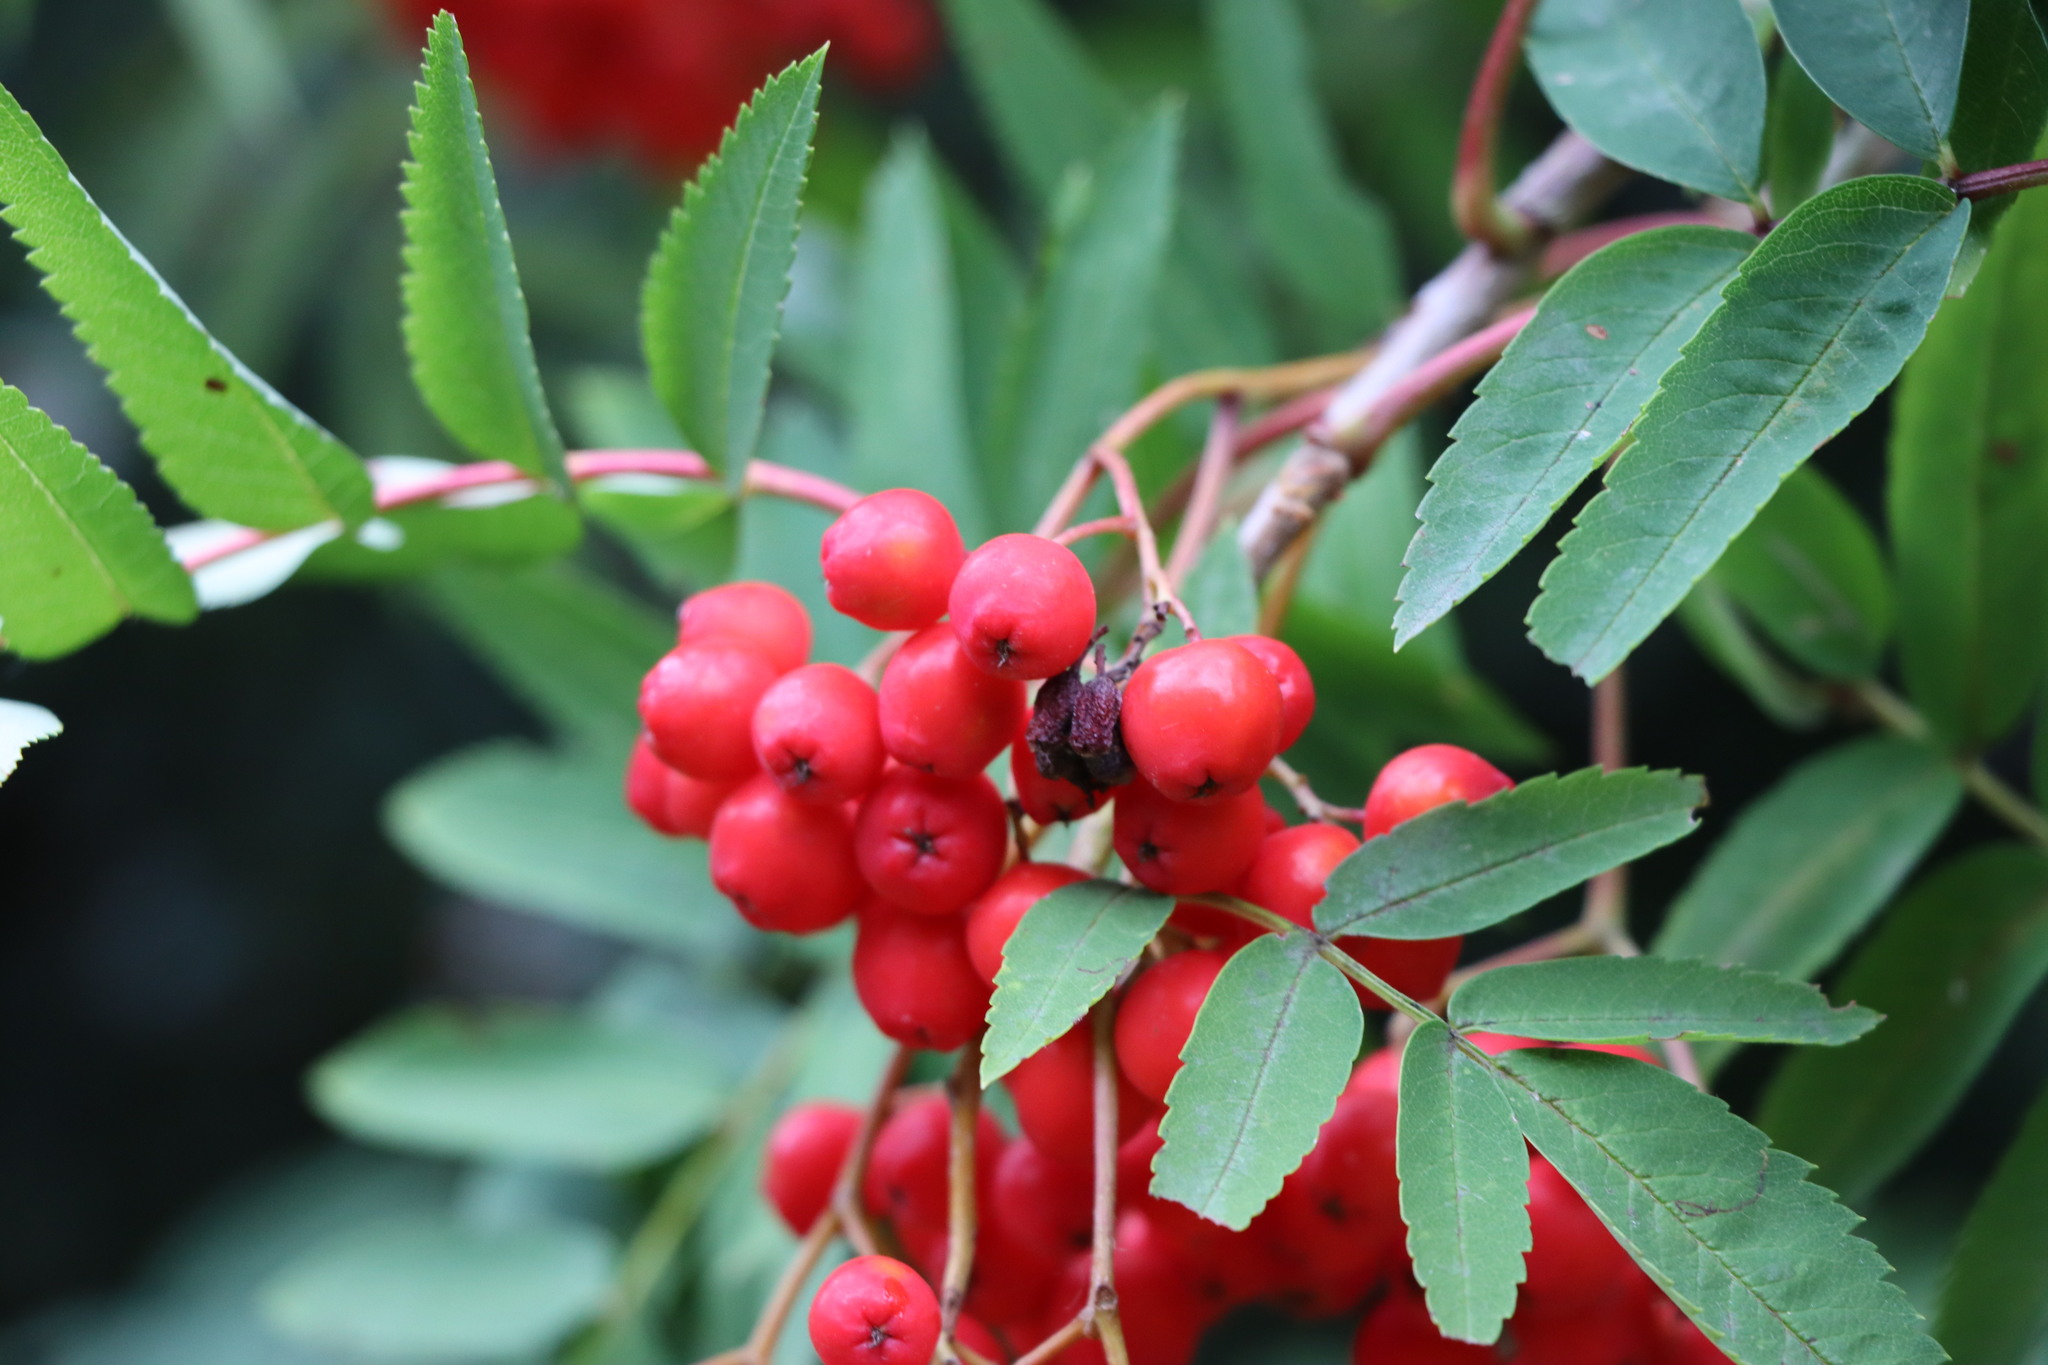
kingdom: Plantae
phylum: Tracheophyta
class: Magnoliopsida
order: Rosales
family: Rosaceae
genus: Sorbus
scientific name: Sorbus aucuparia
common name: Rowan
